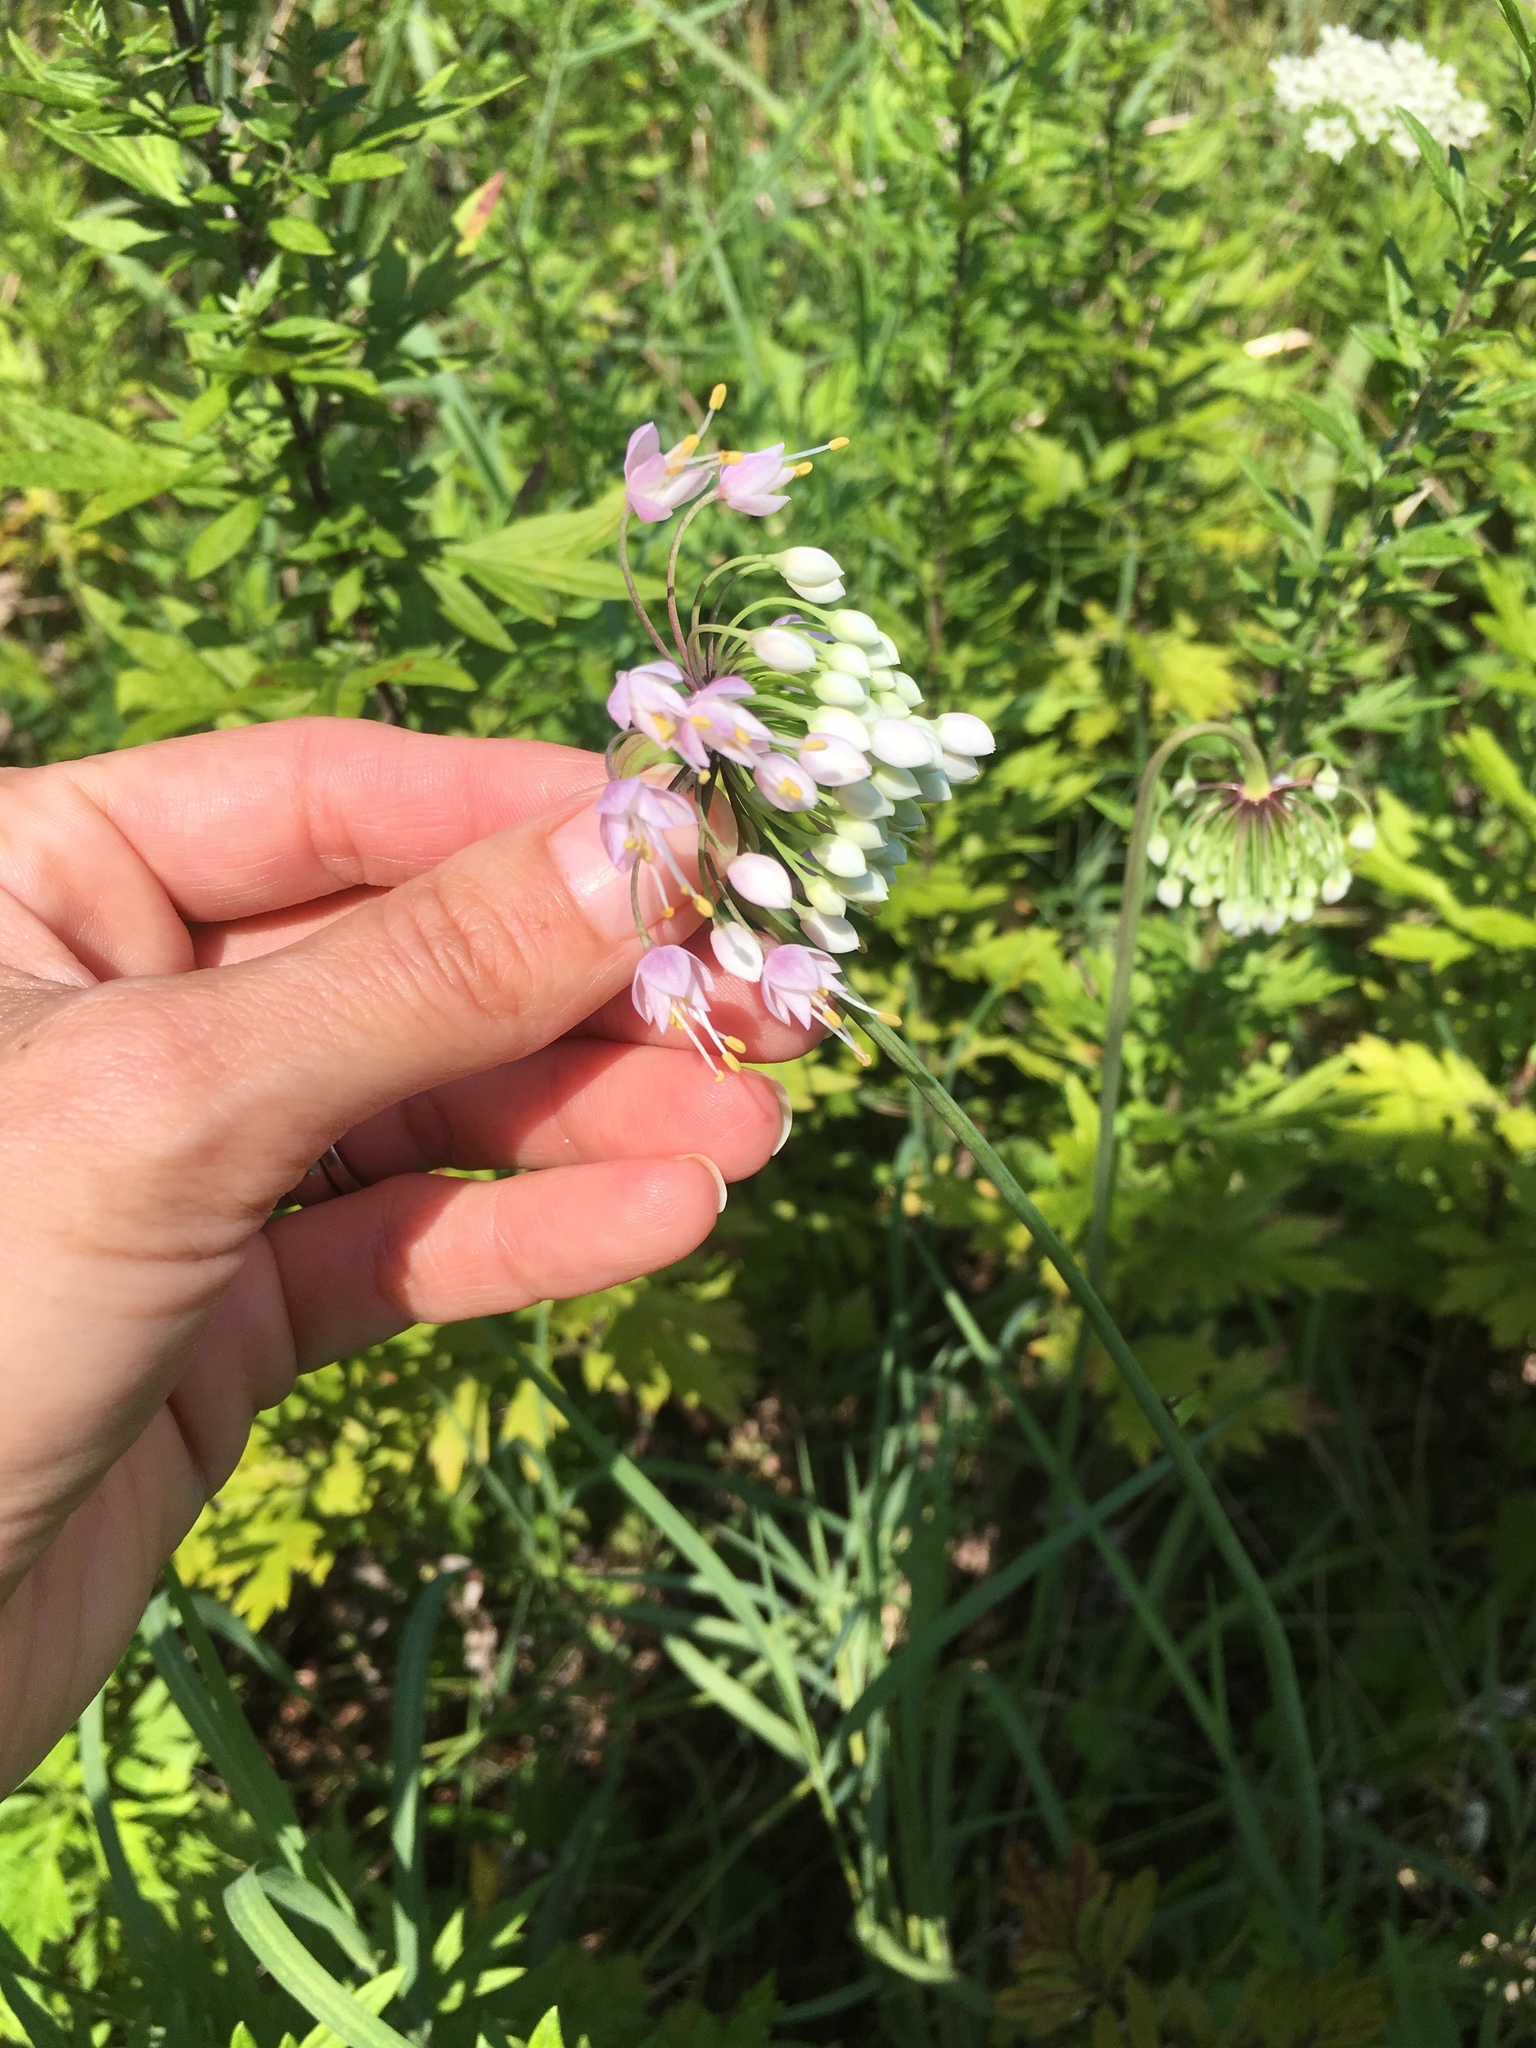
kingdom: Plantae
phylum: Tracheophyta
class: Liliopsida
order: Asparagales
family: Amaryllidaceae
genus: Allium
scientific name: Allium cernuum
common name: Nodding onion
